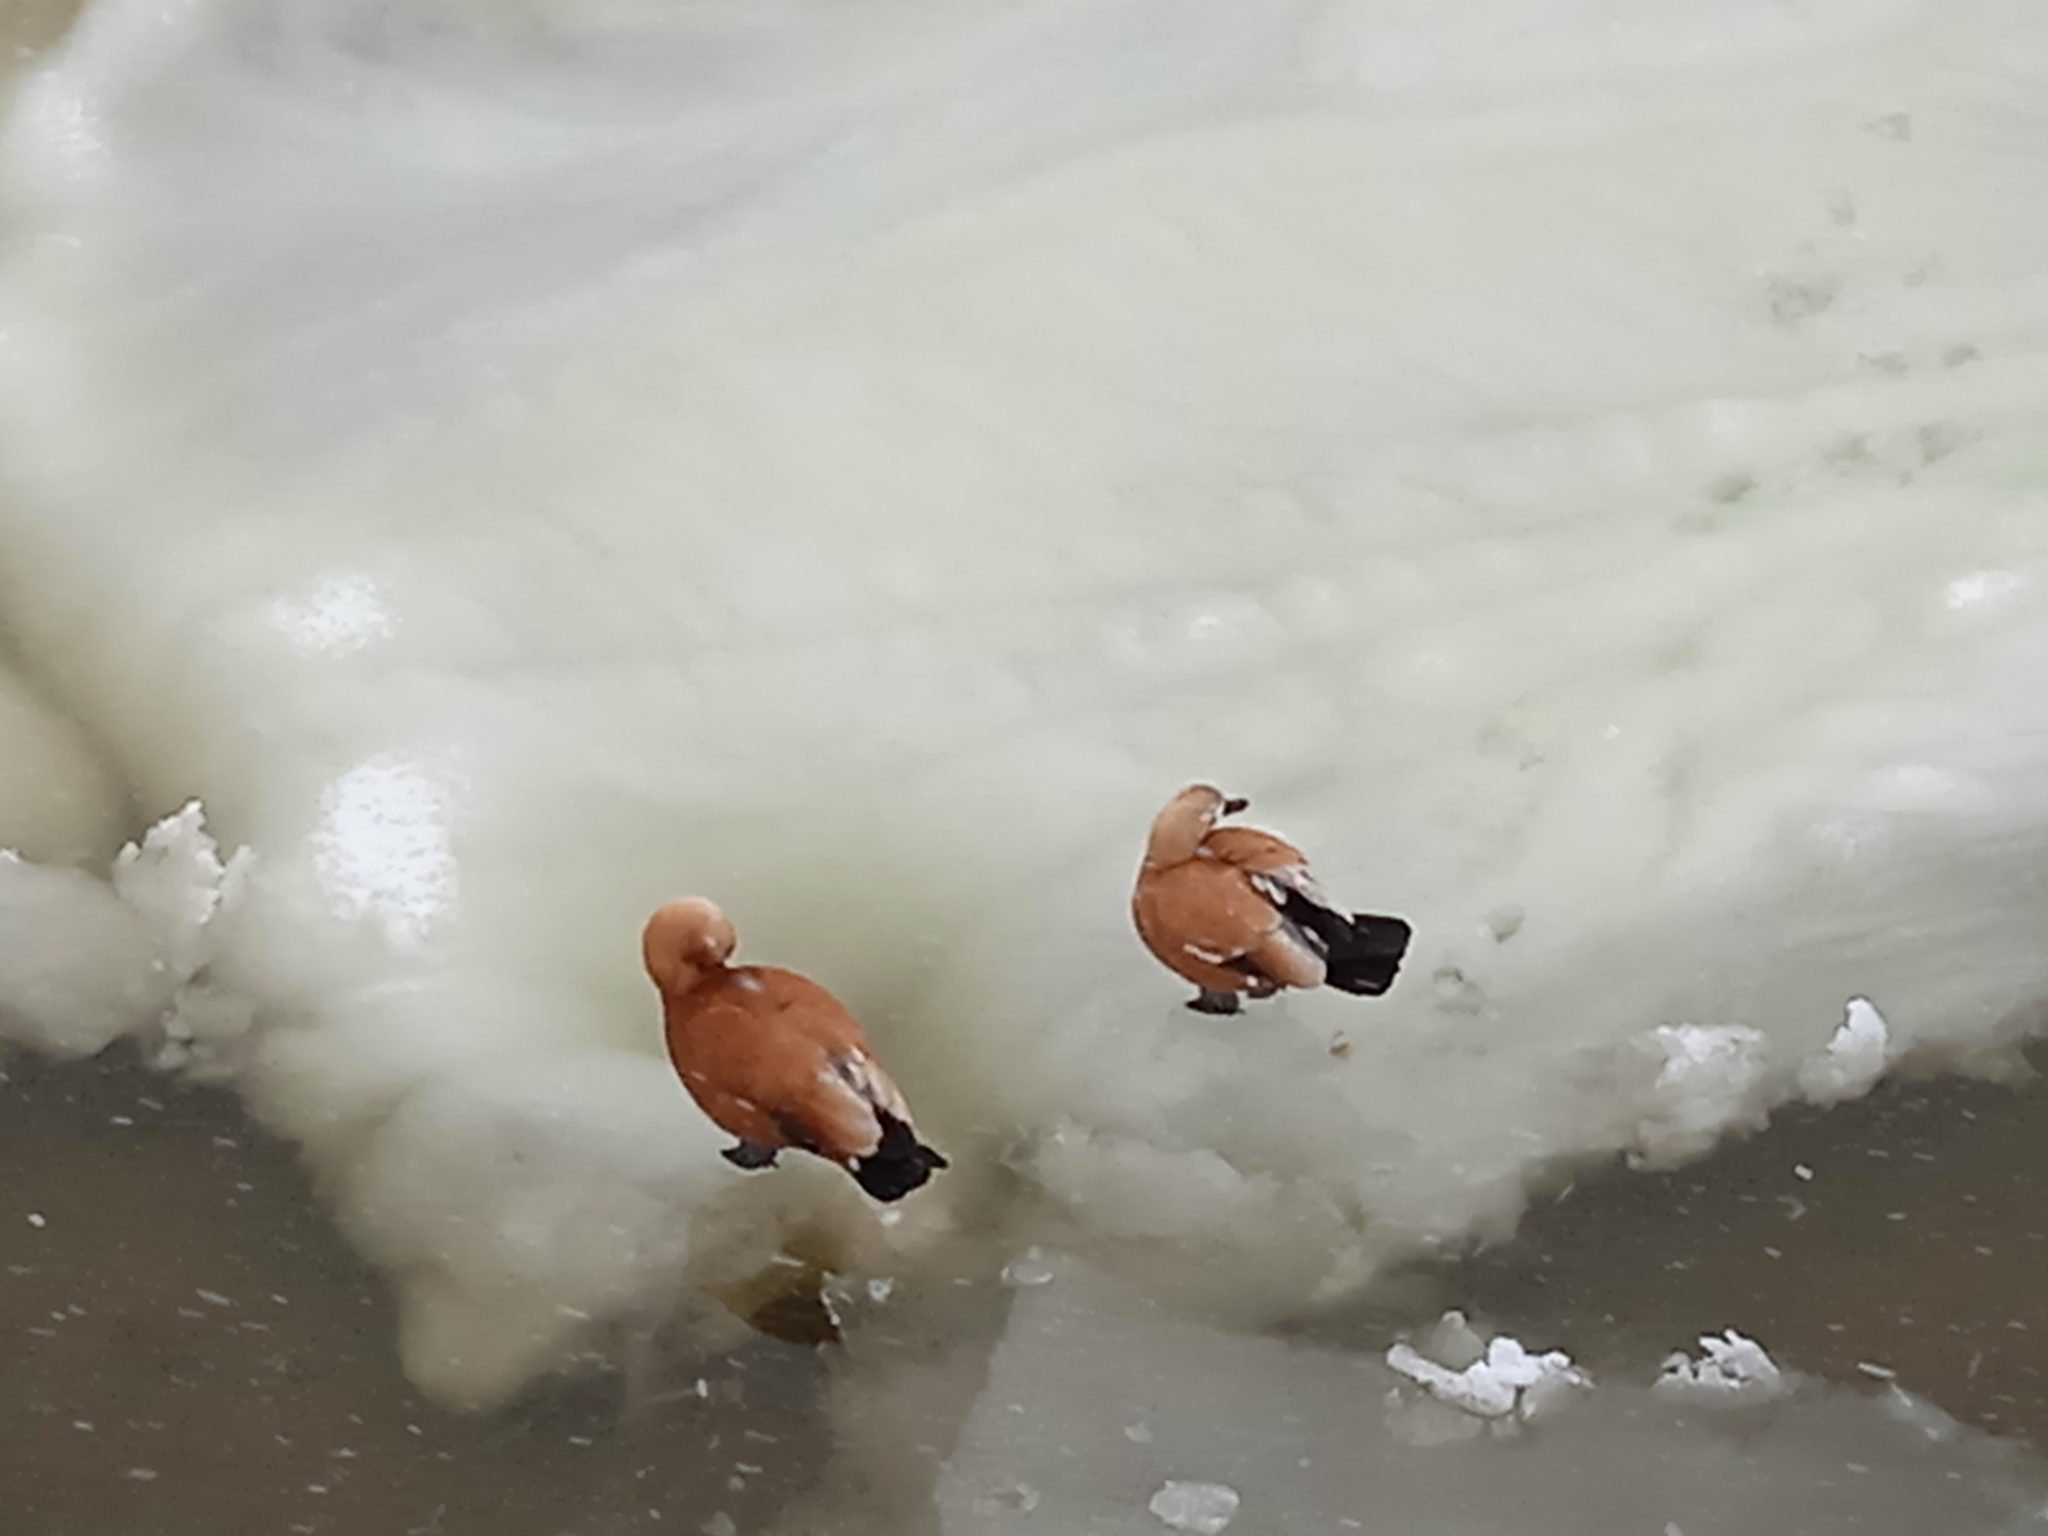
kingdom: Animalia
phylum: Chordata
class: Aves
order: Anseriformes
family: Anatidae
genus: Tadorna
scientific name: Tadorna ferruginea
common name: Ruddy shelduck
